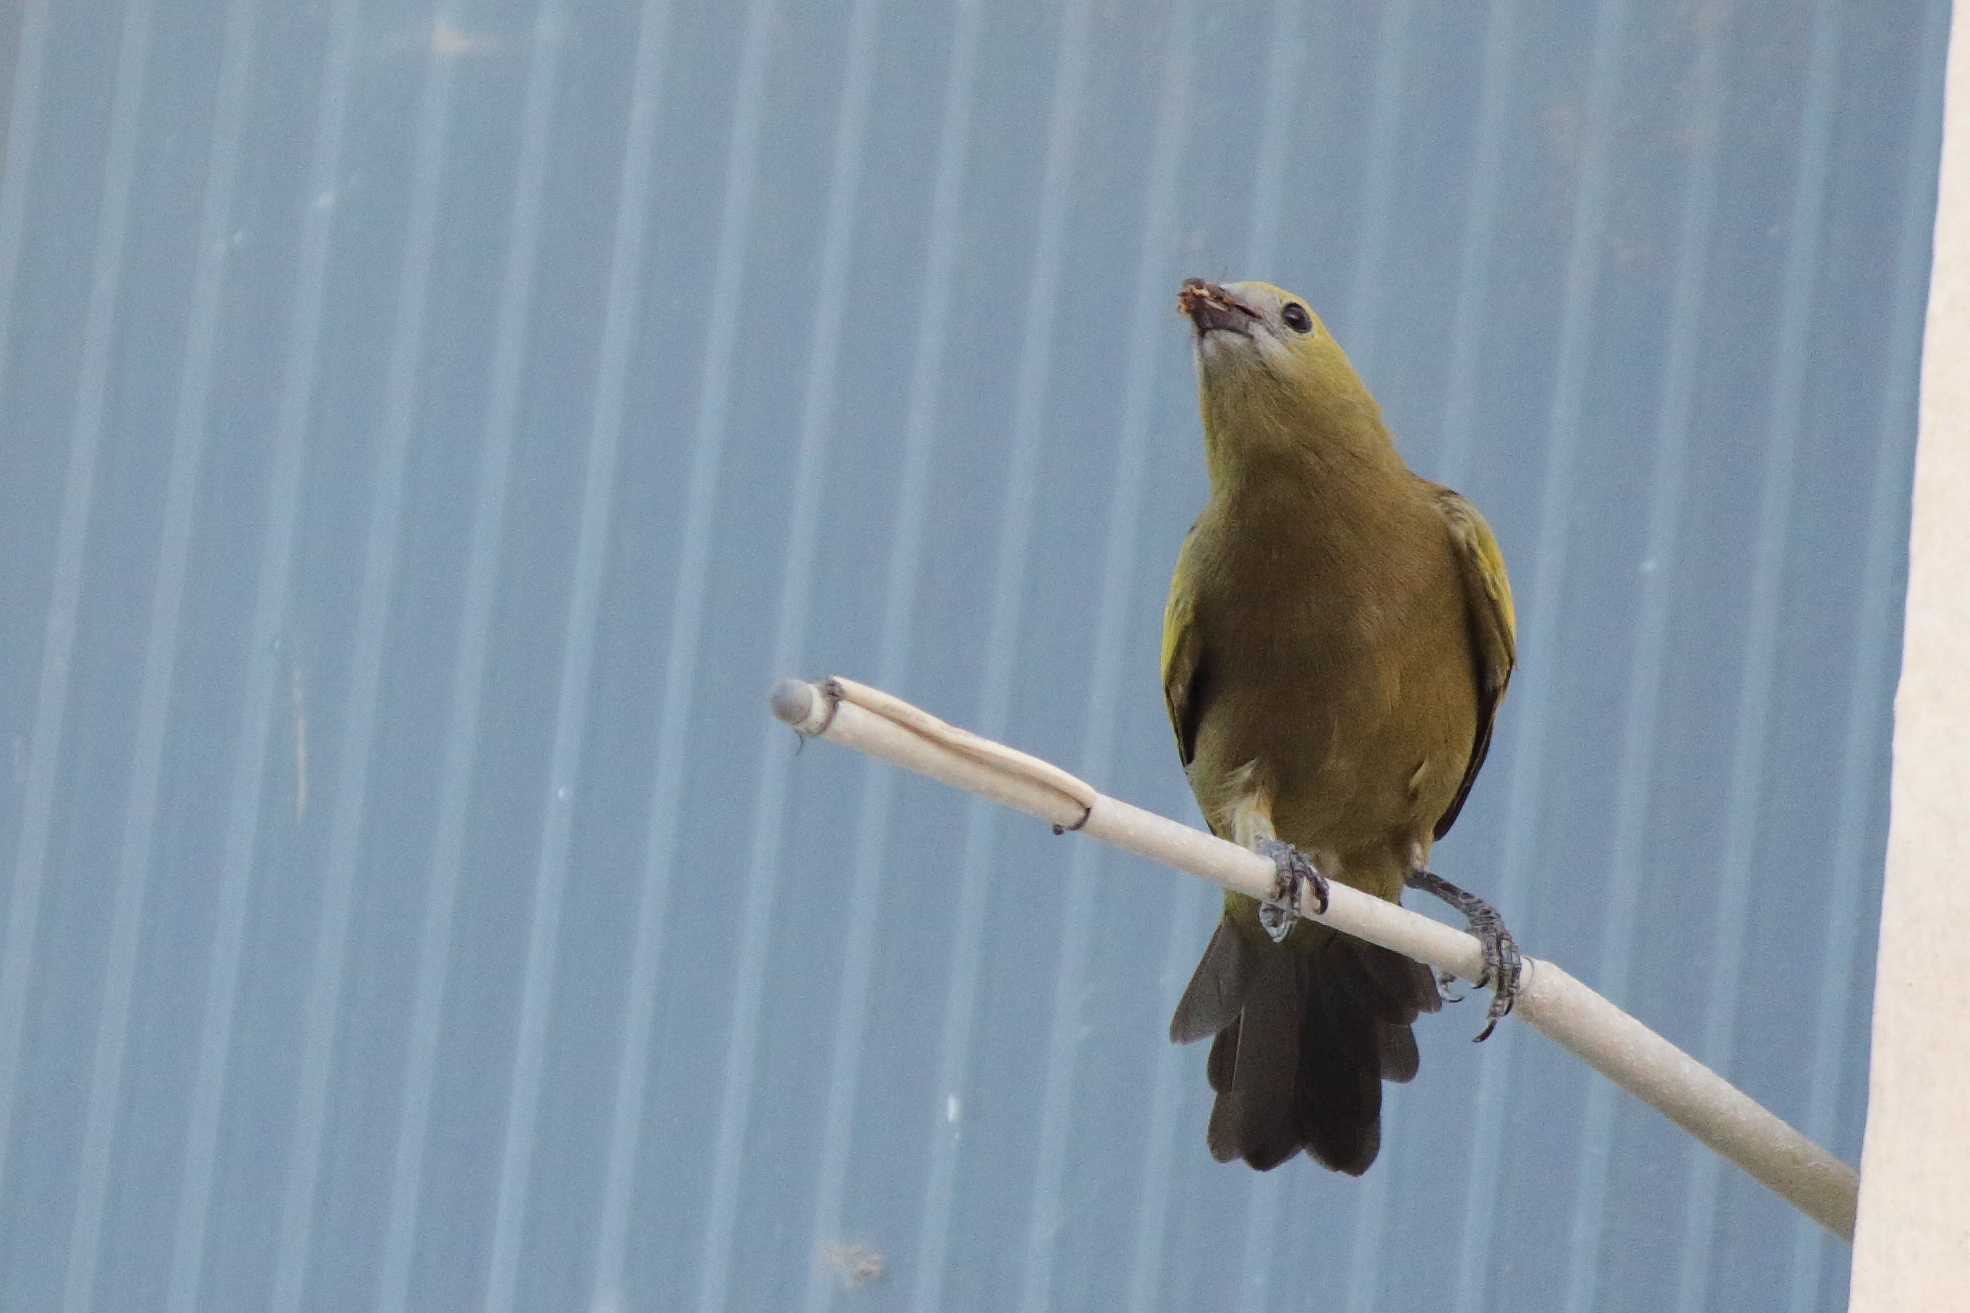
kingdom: Animalia
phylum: Chordata
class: Aves
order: Passeriformes
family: Thraupidae
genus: Thraupis
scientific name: Thraupis palmarum
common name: Palm tanager
